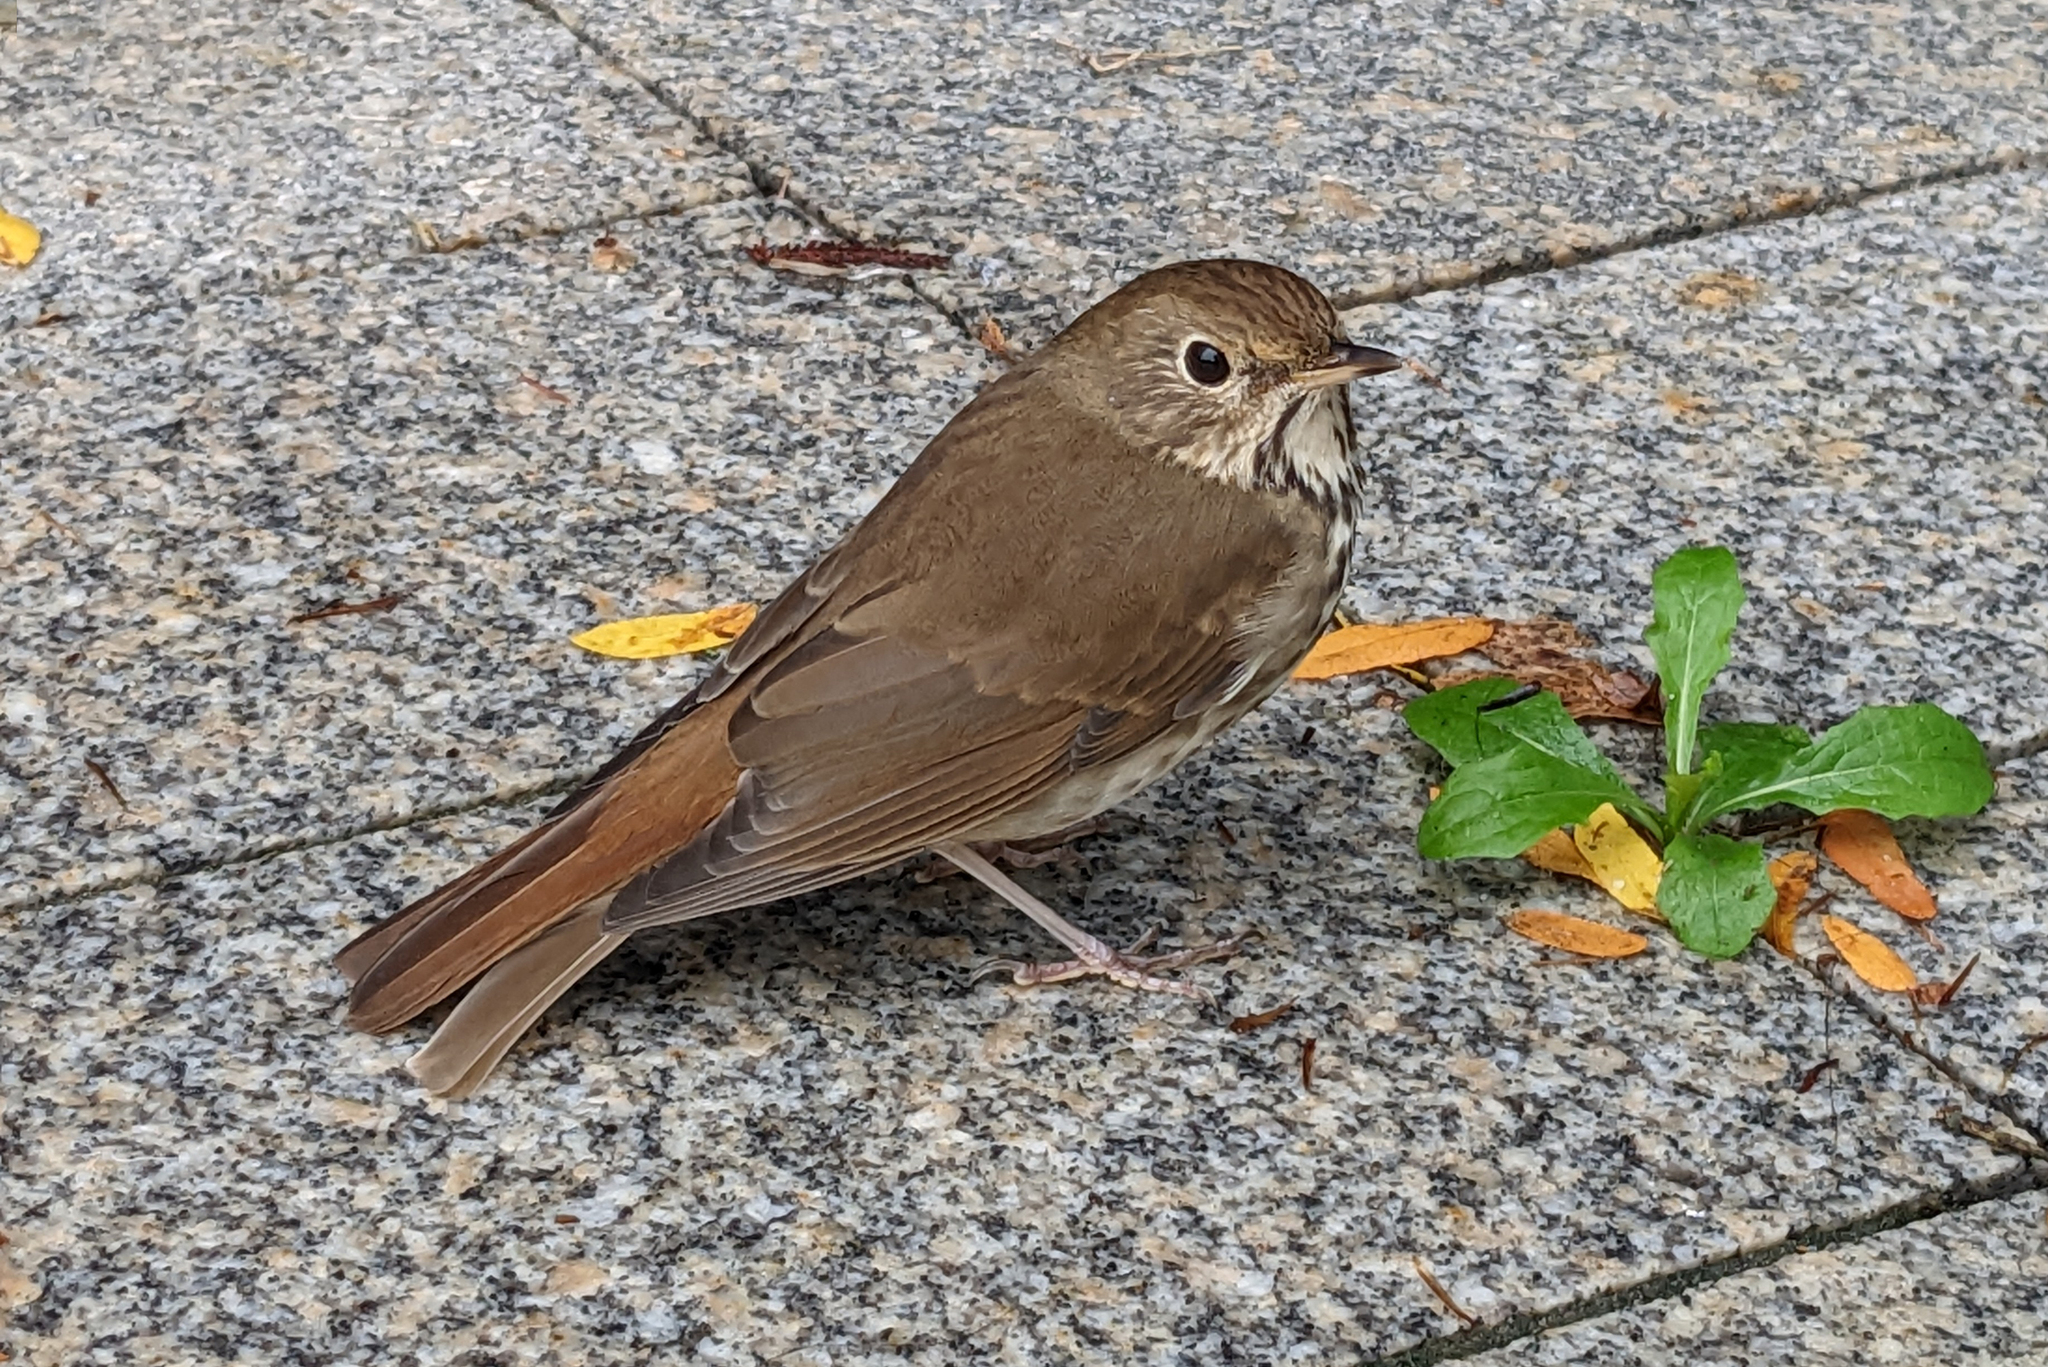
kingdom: Animalia
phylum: Chordata
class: Aves
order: Passeriformes
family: Turdidae
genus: Catharus
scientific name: Catharus guttatus
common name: Hermit thrush
